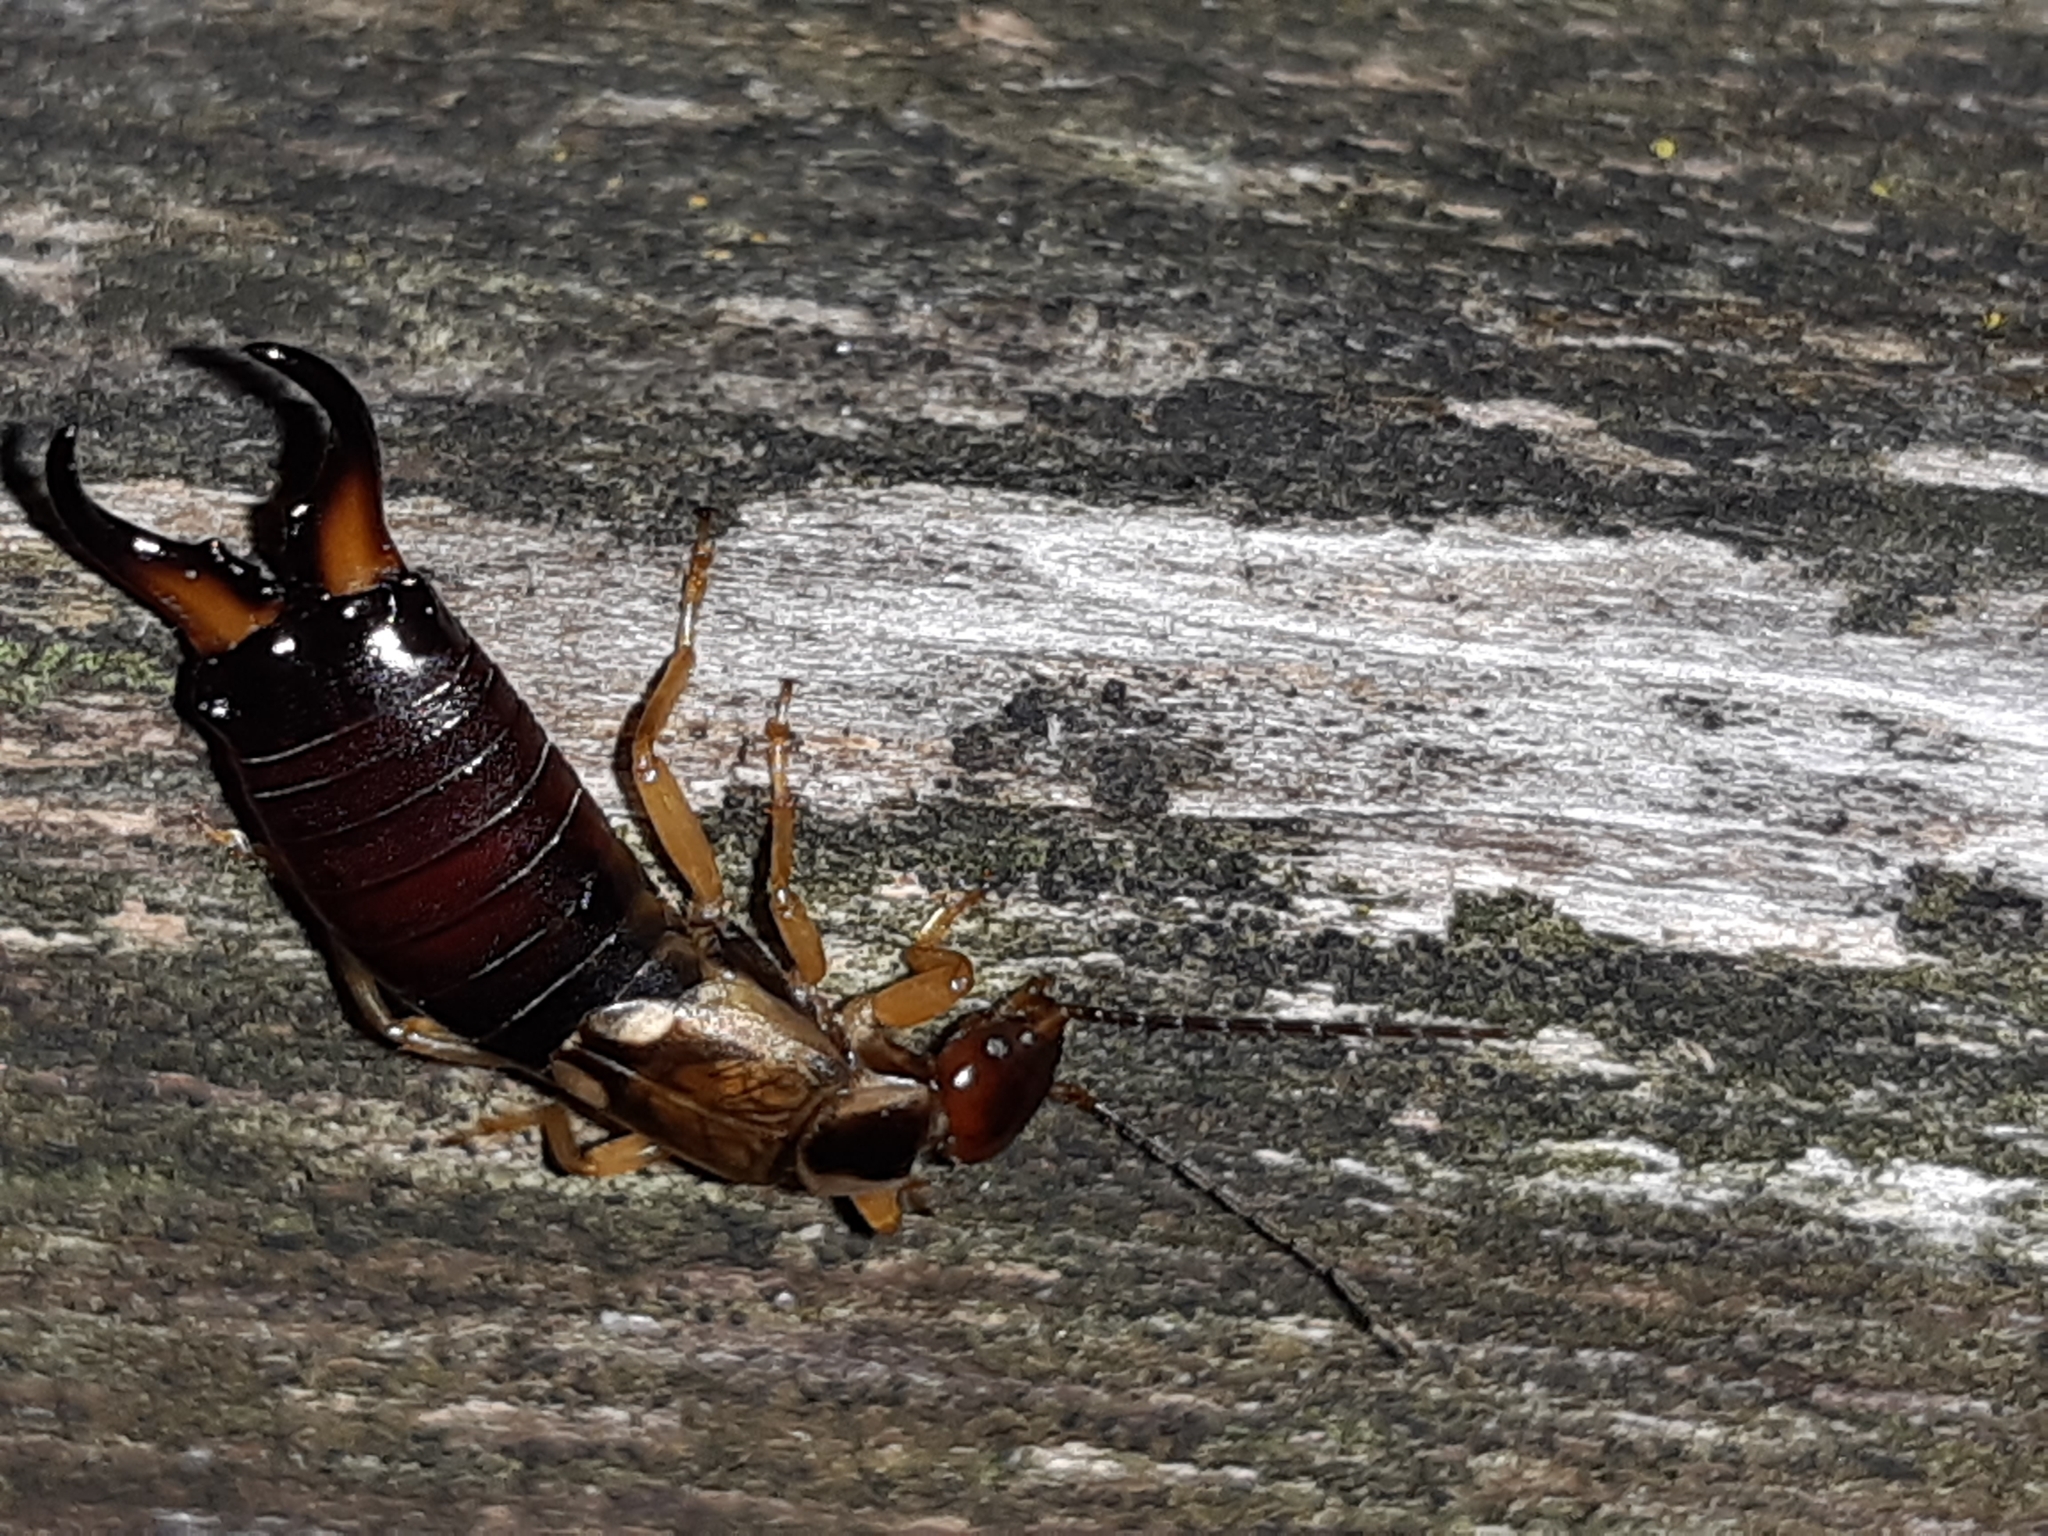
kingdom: Animalia
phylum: Arthropoda
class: Insecta
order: Dermaptera
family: Forficulidae
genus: Forficula
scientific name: Forficula
